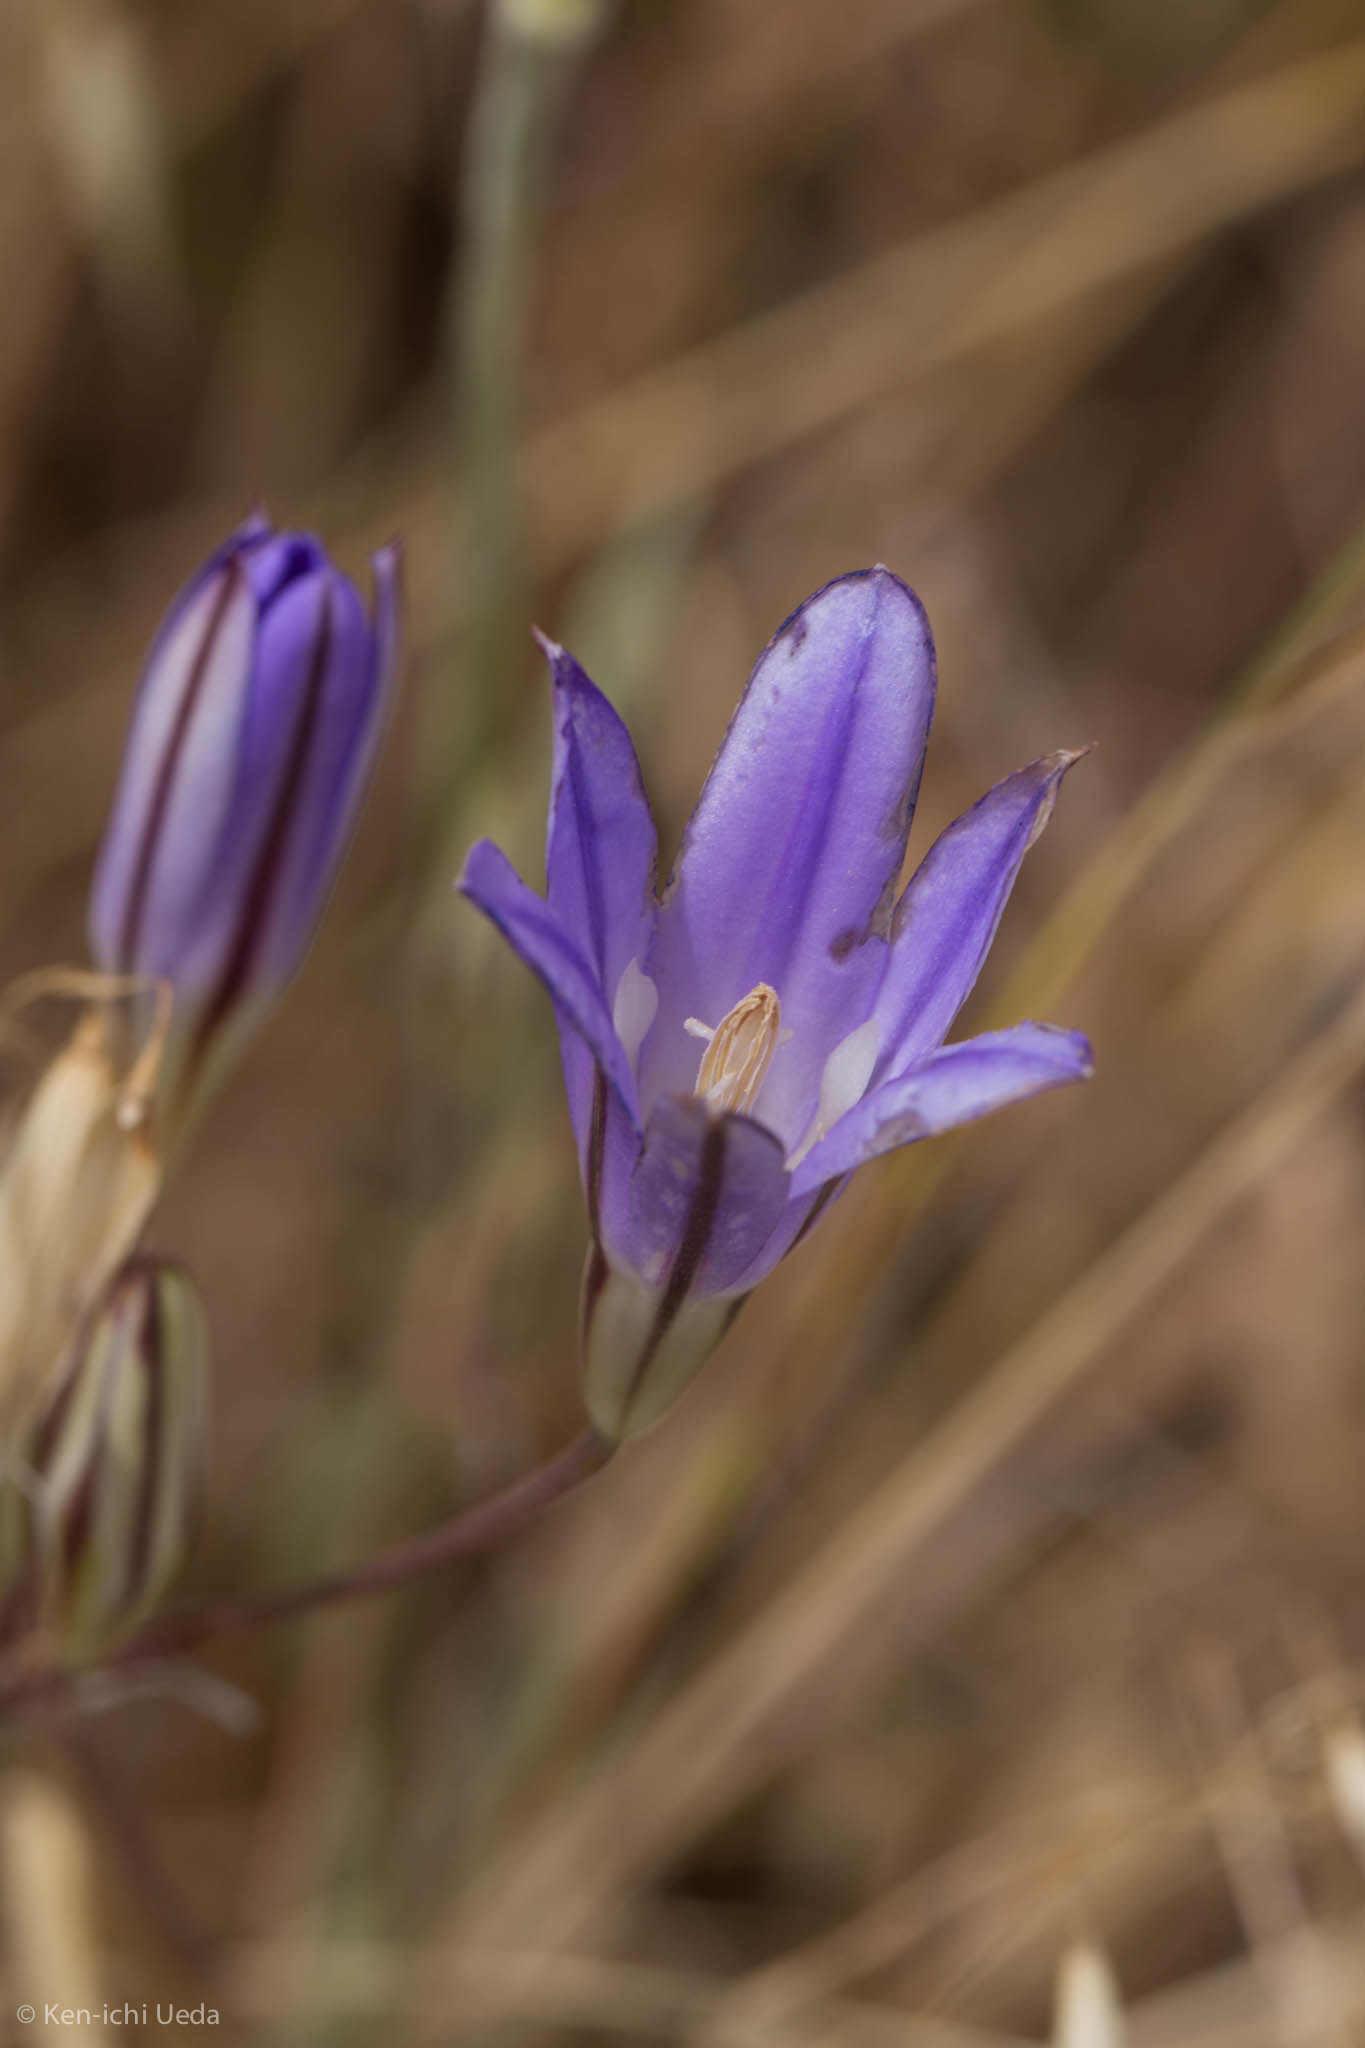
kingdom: Plantae
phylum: Tracheophyta
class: Liliopsida
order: Asparagales
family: Asparagaceae
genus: Brodiaea
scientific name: Brodiaea elegans
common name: Elegant cluster-lily
